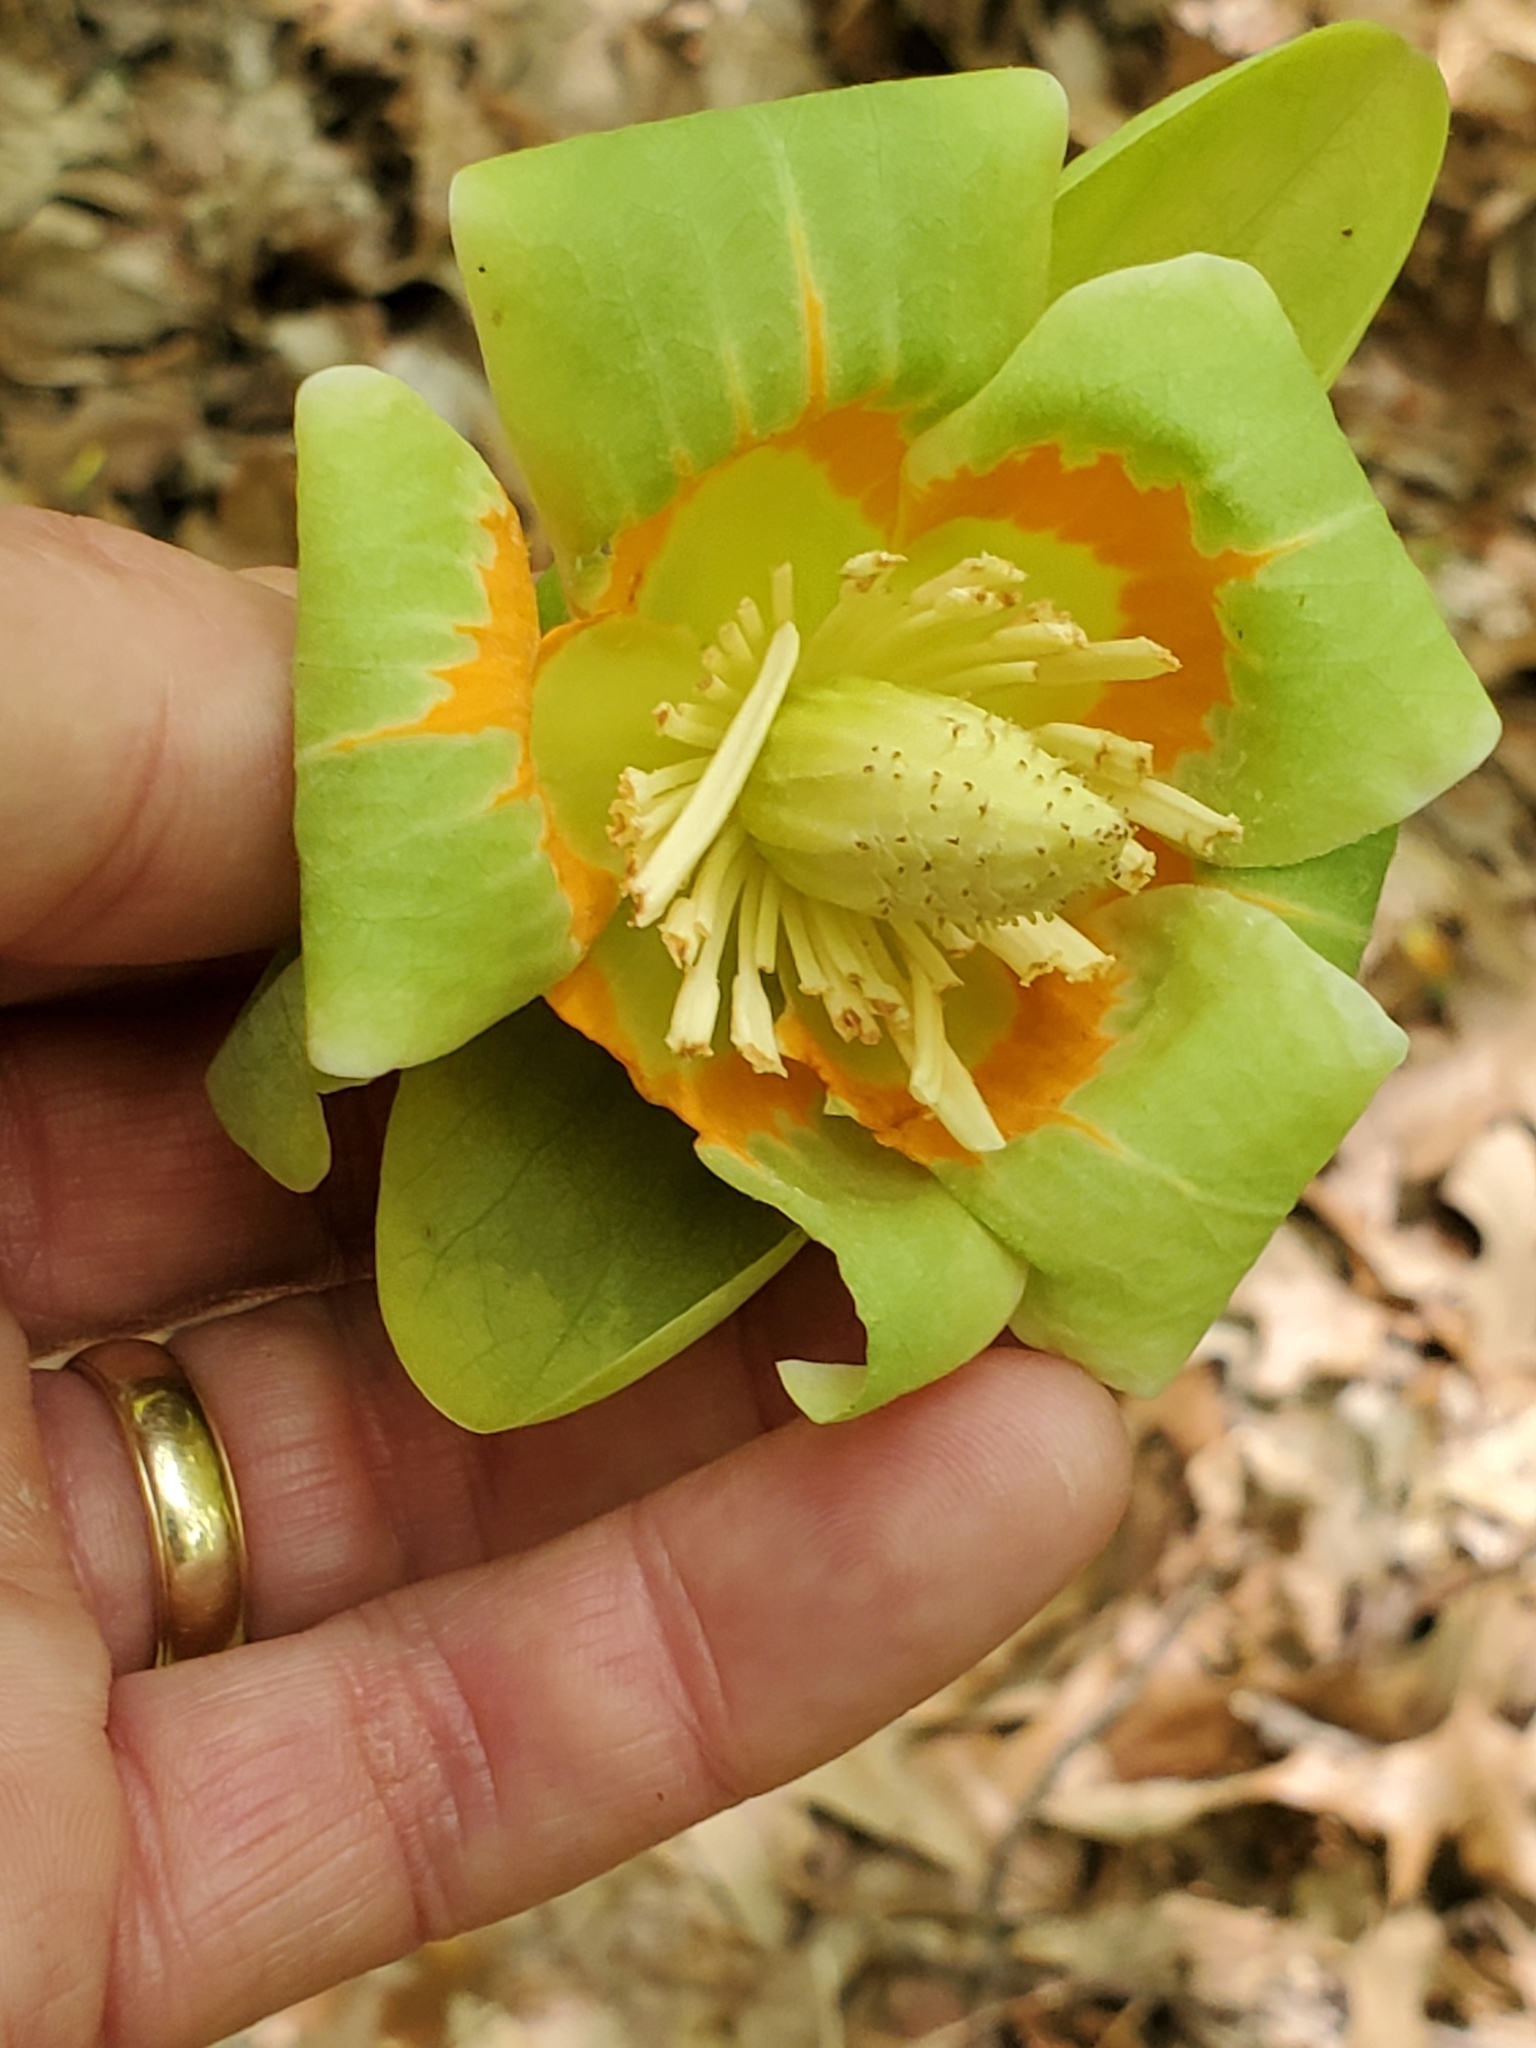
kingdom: Plantae
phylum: Tracheophyta
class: Magnoliopsida
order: Magnoliales
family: Magnoliaceae
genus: Liriodendron
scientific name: Liriodendron tulipifera
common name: Tulip tree
